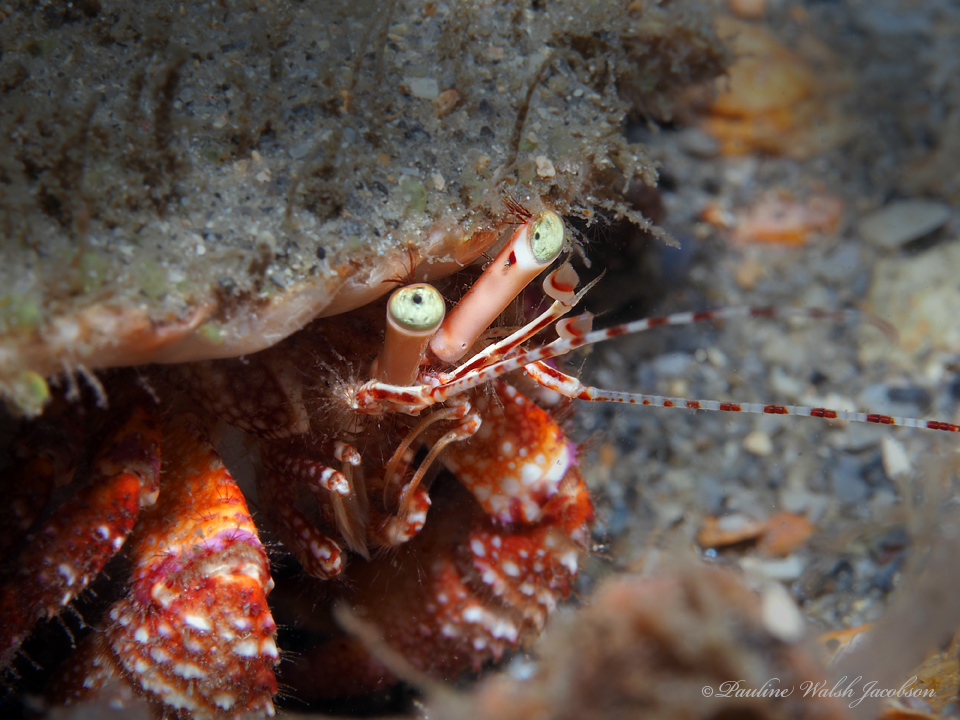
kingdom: Animalia
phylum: Arthropoda
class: Malacostraca
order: Decapoda
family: Diogenidae
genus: Petrochirus
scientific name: Petrochirus diogenes
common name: Giant hermit crab
